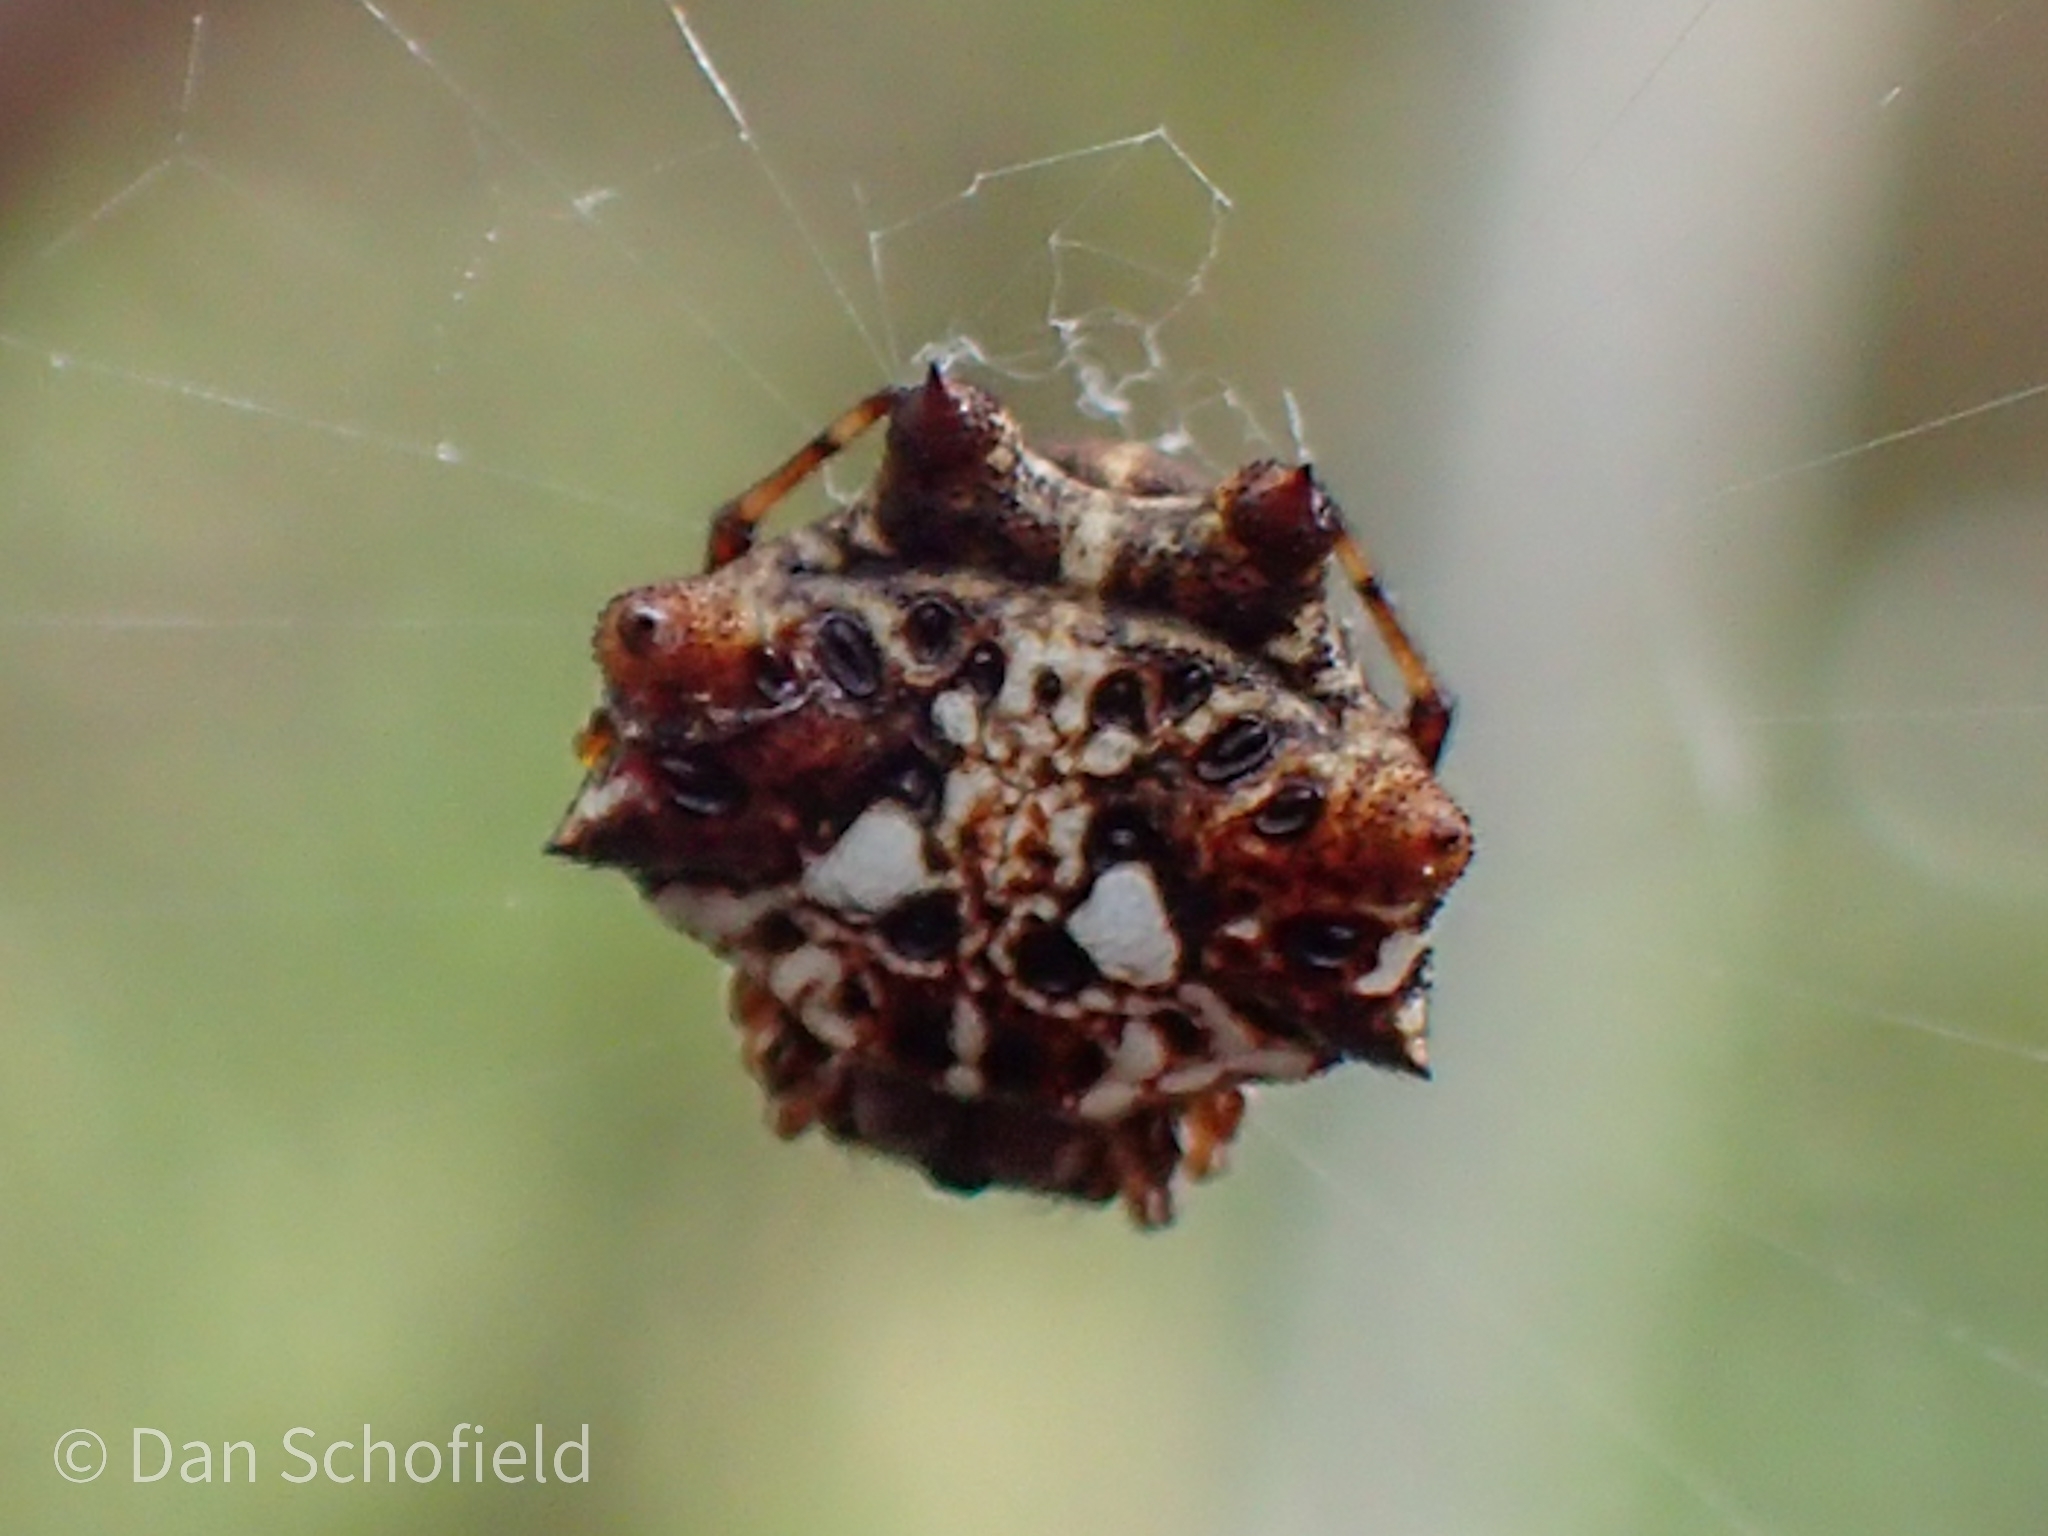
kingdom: Animalia
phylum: Arthropoda
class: Arachnida
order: Araneae
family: Araneidae
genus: Thelacantha
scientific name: Thelacantha brevispina
